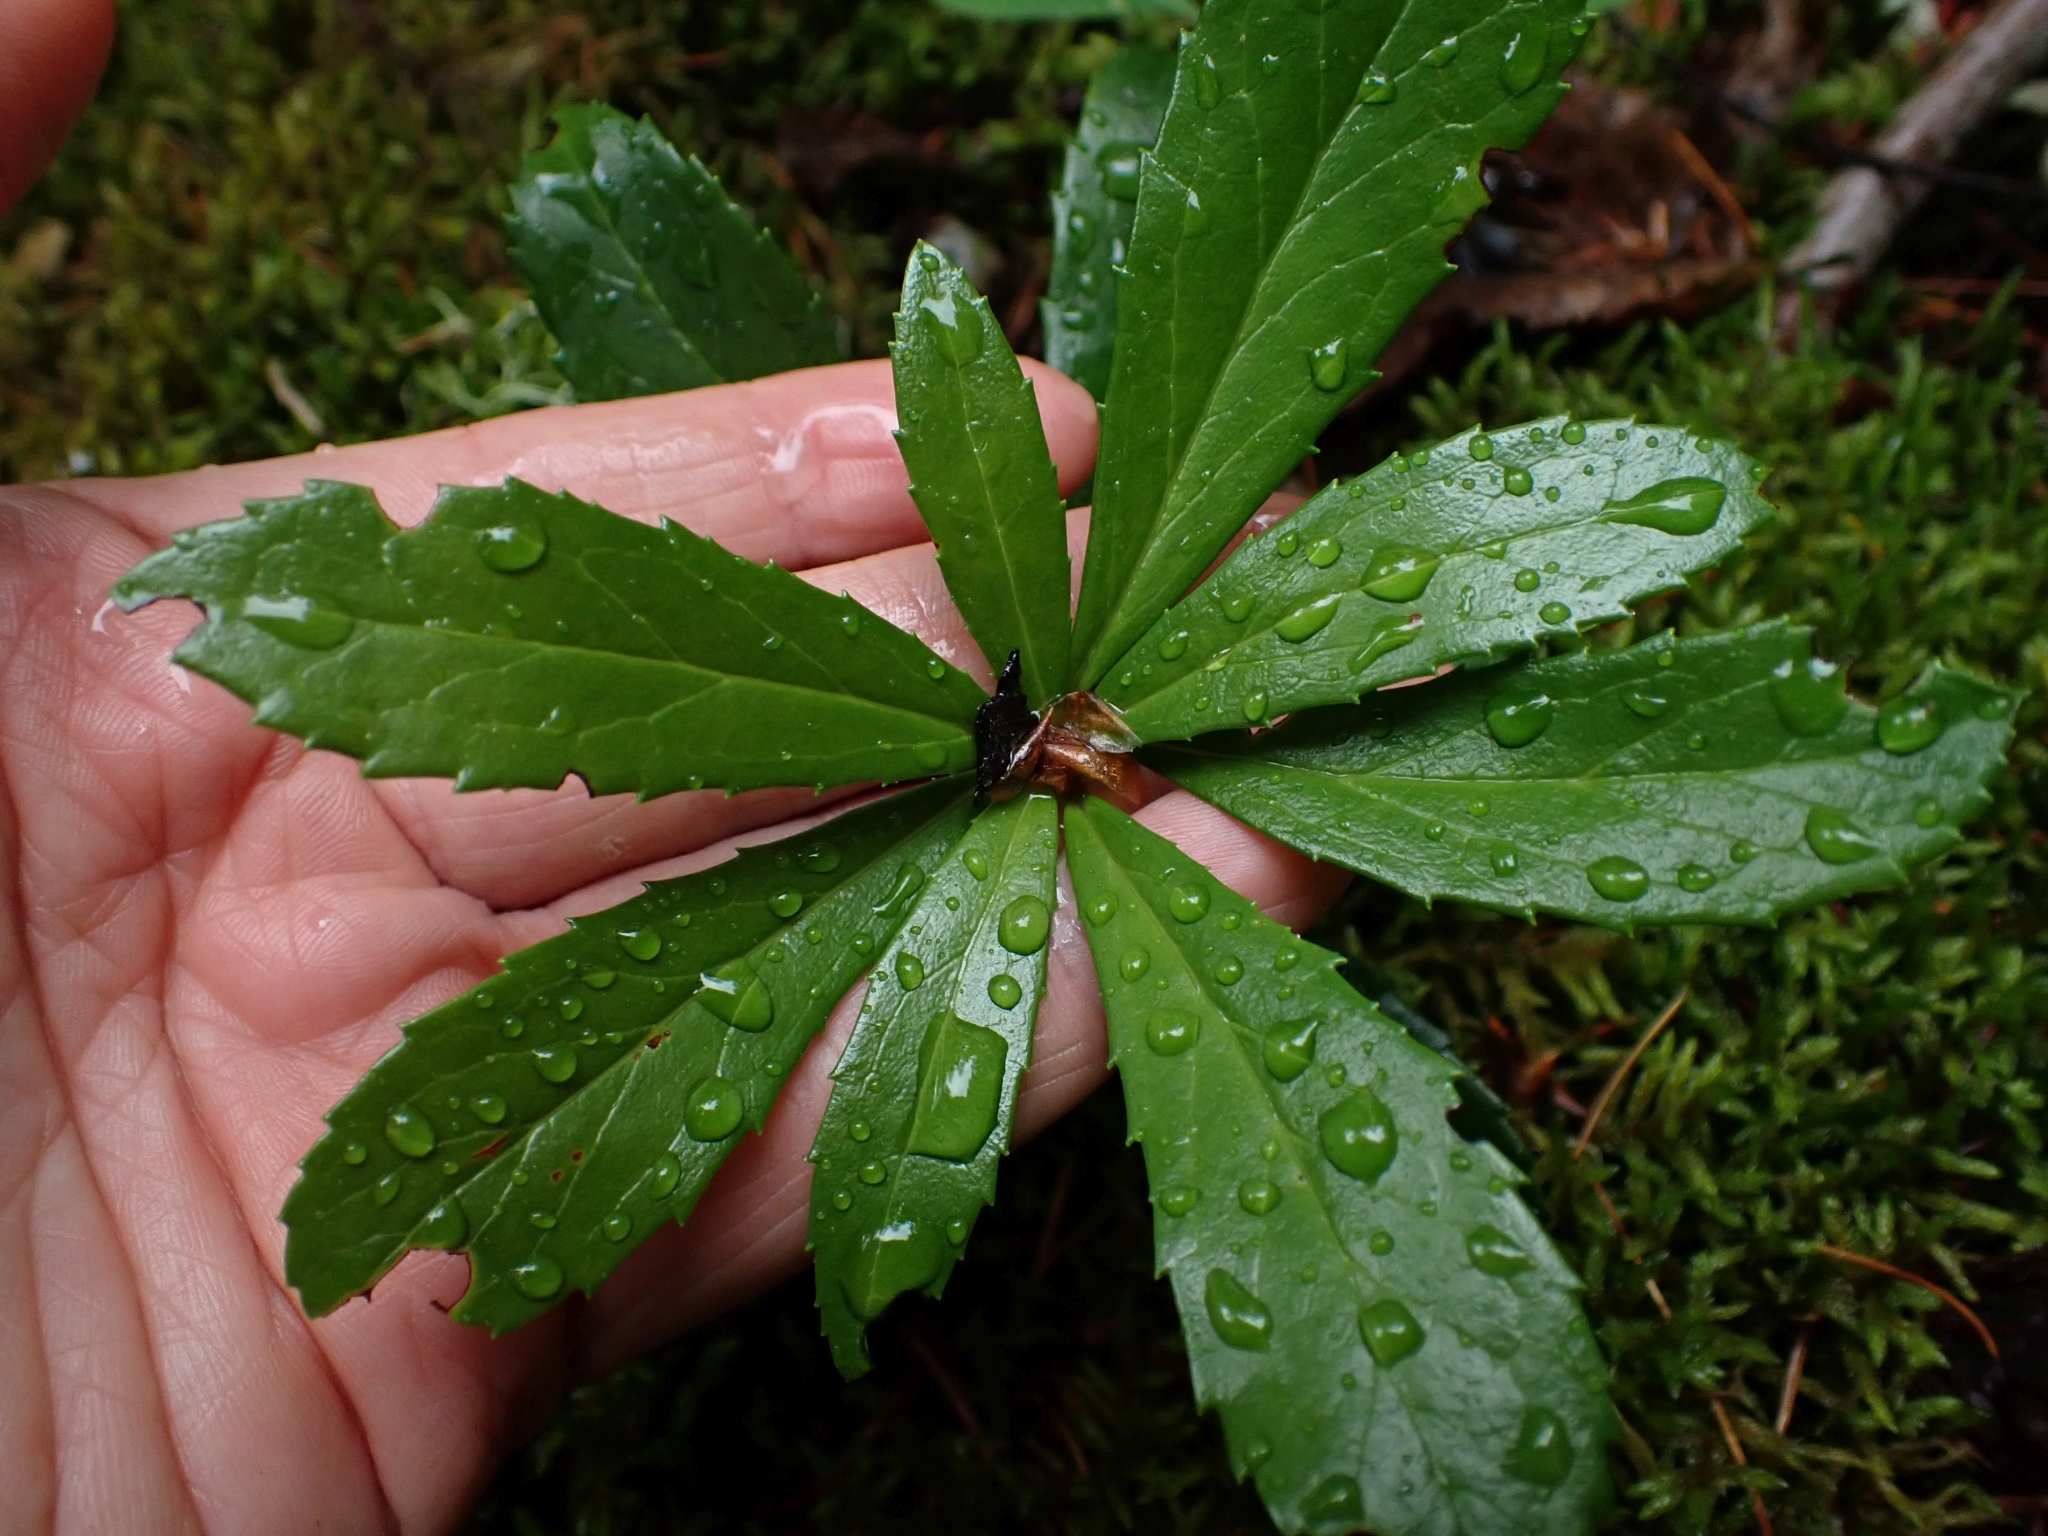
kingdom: Plantae
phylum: Tracheophyta
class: Magnoliopsida
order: Ericales
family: Ericaceae
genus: Chimaphila
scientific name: Chimaphila umbellata
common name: Pipsissewa
